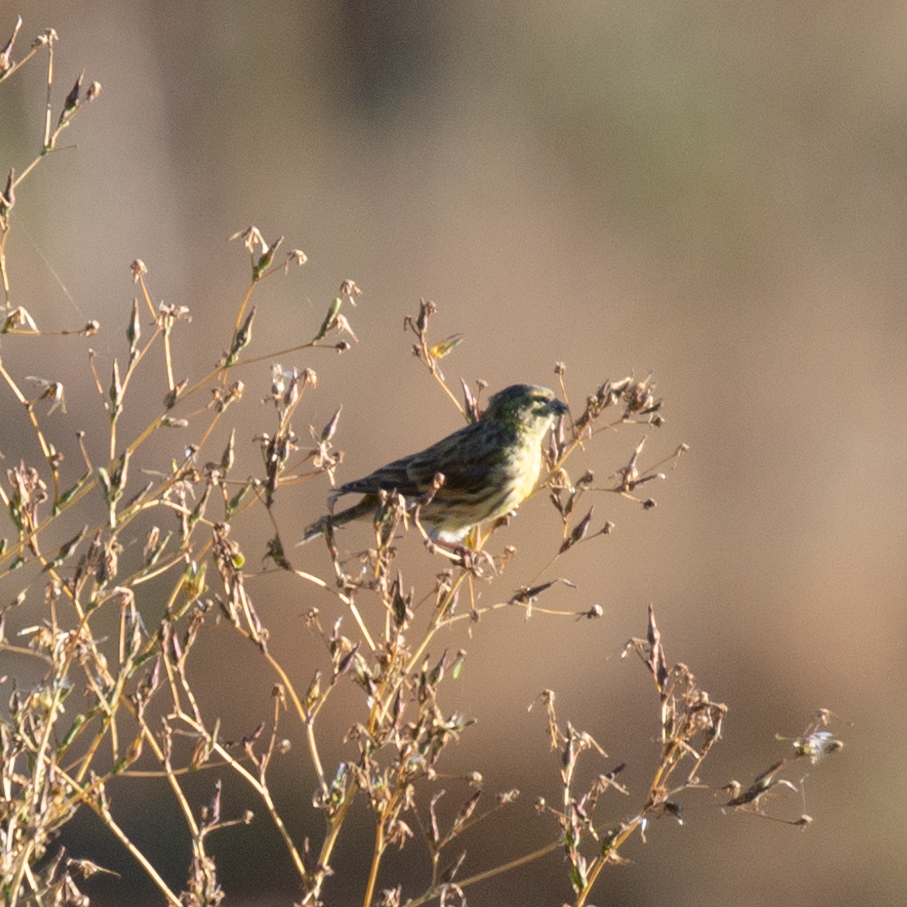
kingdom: Animalia
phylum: Chordata
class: Aves
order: Passeriformes
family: Fringillidae
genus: Serinus
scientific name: Serinus serinus
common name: European serin
